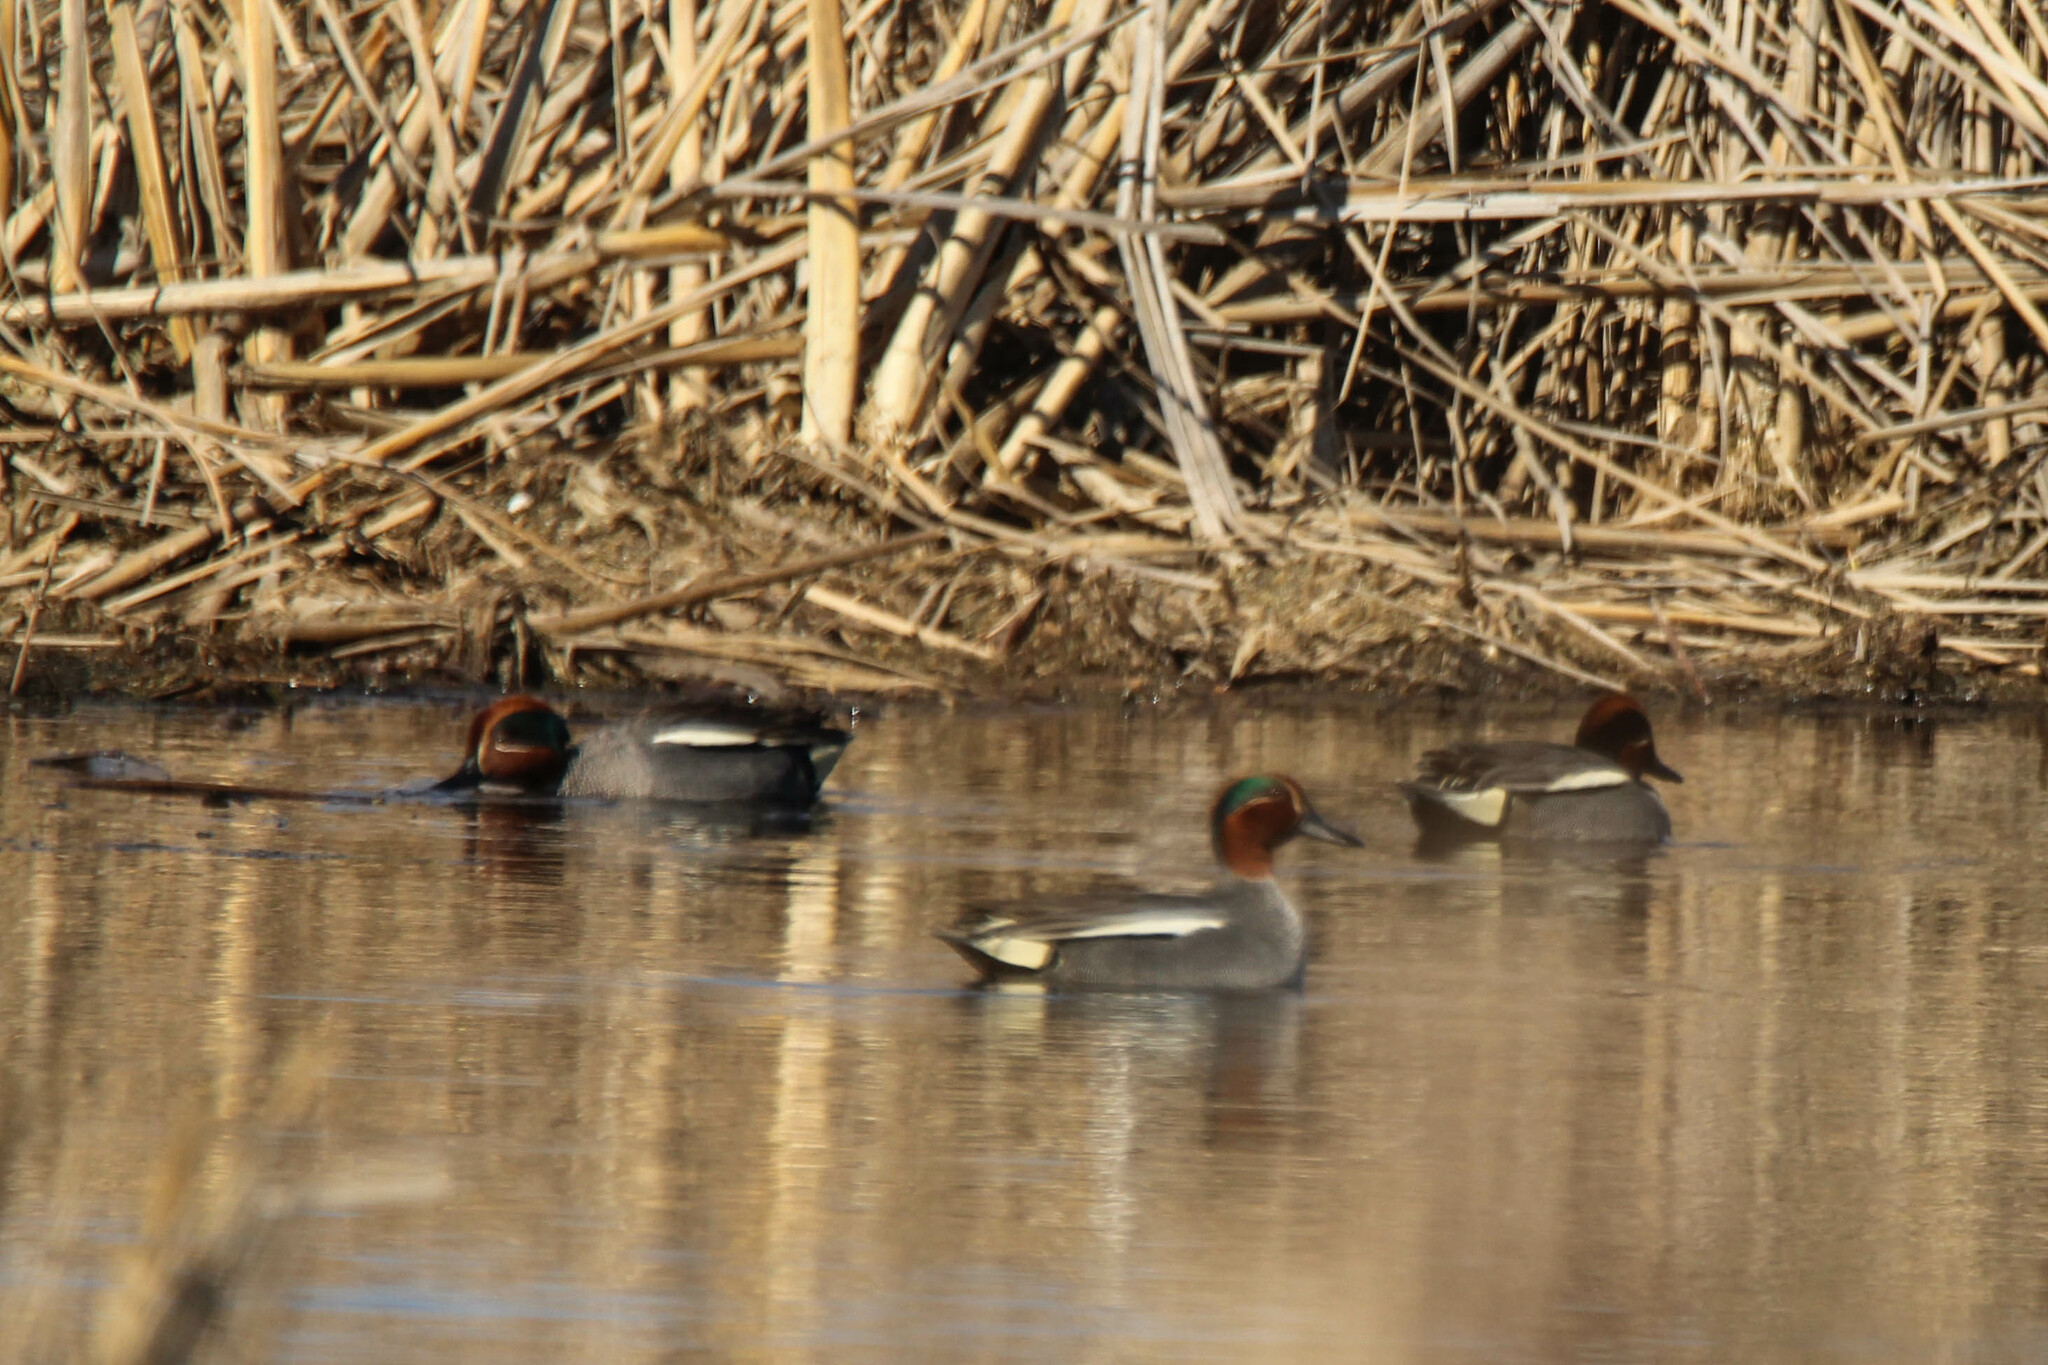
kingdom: Animalia
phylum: Chordata
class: Aves
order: Anseriformes
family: Anatidae
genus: Anas
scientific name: Anas crecca
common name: Eurasian teal
